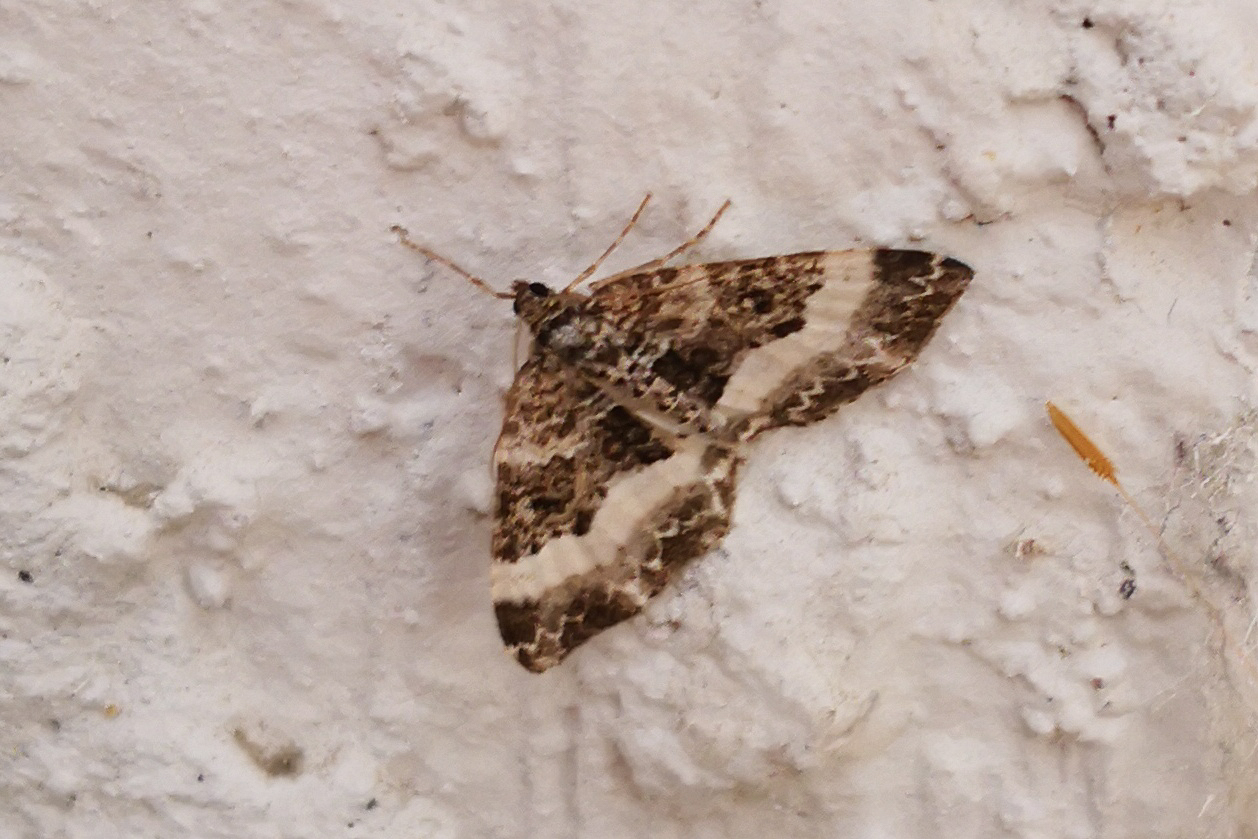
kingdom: Animalia
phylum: Arthropoda
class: Insecta
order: Lepidoptera
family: Geometridae
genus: Euphyia
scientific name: Euphyia unangulata
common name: Sharp-angled carpet
